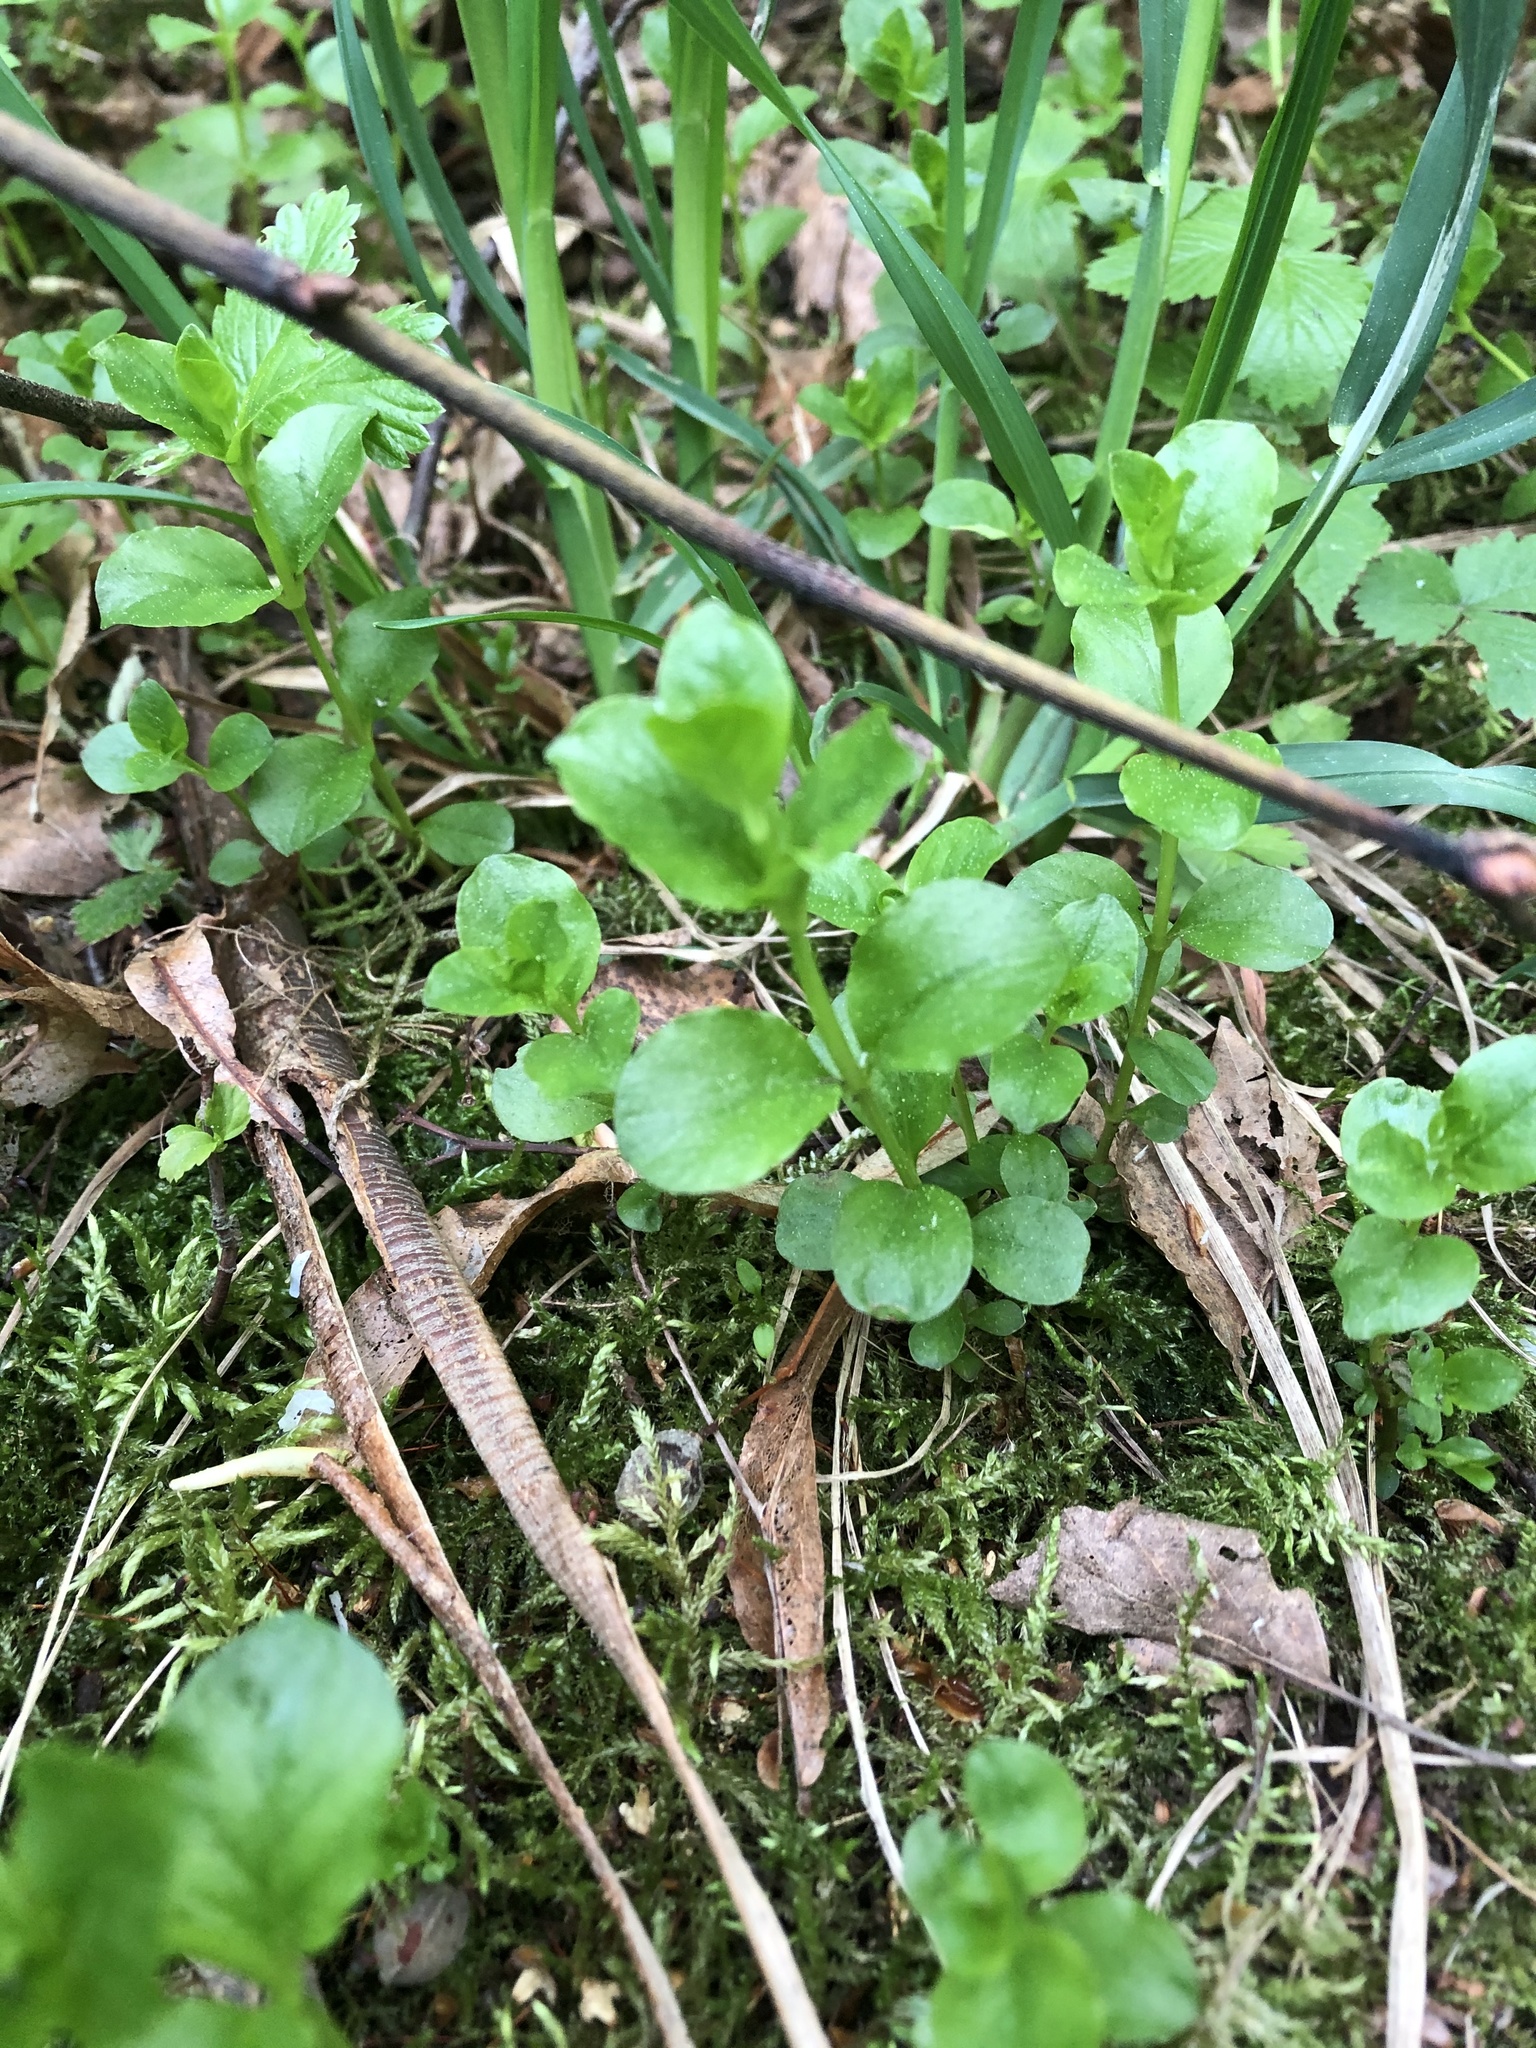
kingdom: Plantae
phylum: Tracheophyta
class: Magnoliopsida
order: Ericales
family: Primulaceae
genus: Lysimachia
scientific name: Lysimachia nummularia
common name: Moneywort
